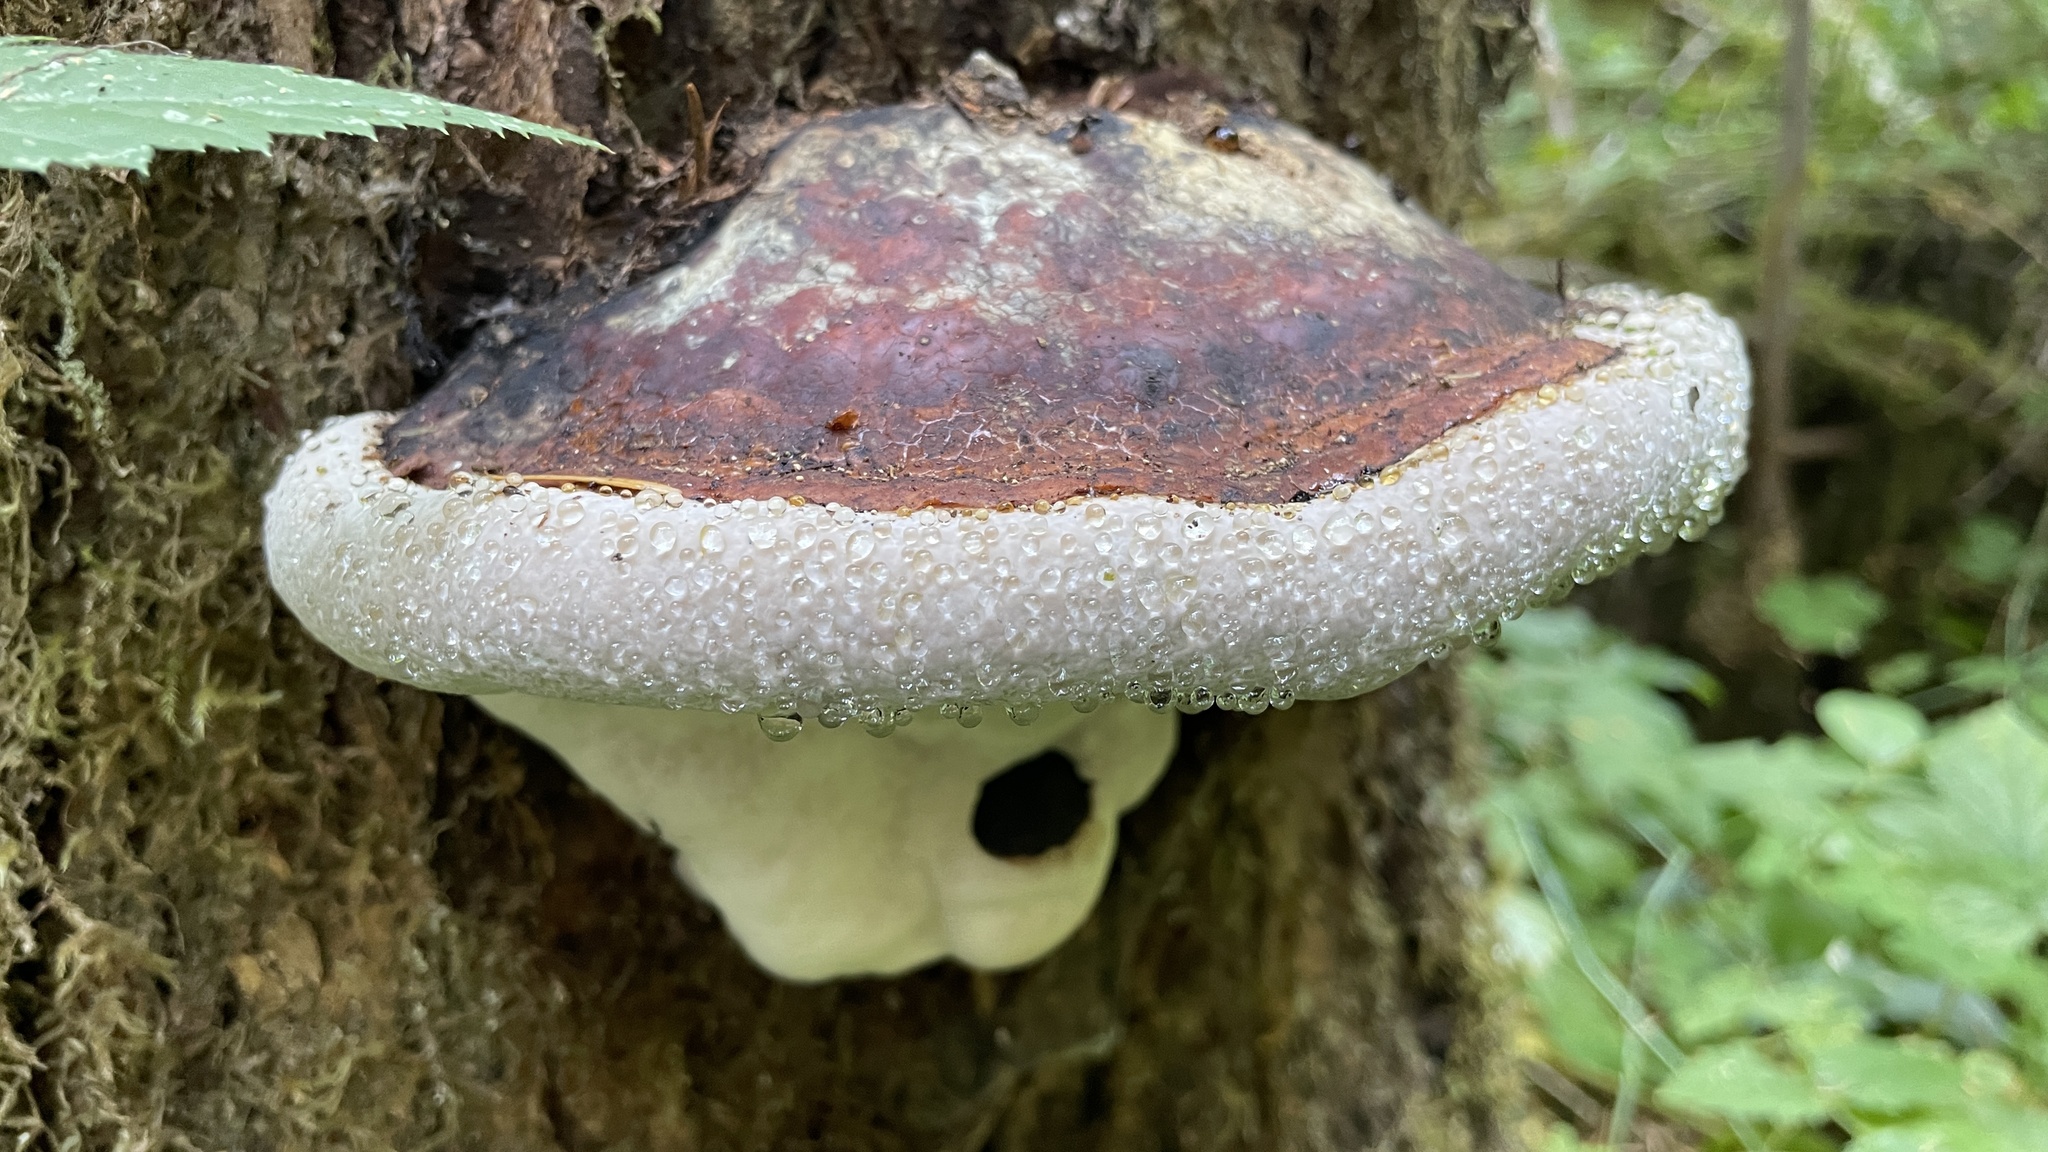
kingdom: Fungi
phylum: Basidiomycota
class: Agaricomycetes
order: Polyporales
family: Fomitopsidaceae
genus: Fomitopsis
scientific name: Fomitopsis mounceae
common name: Northern red belt
